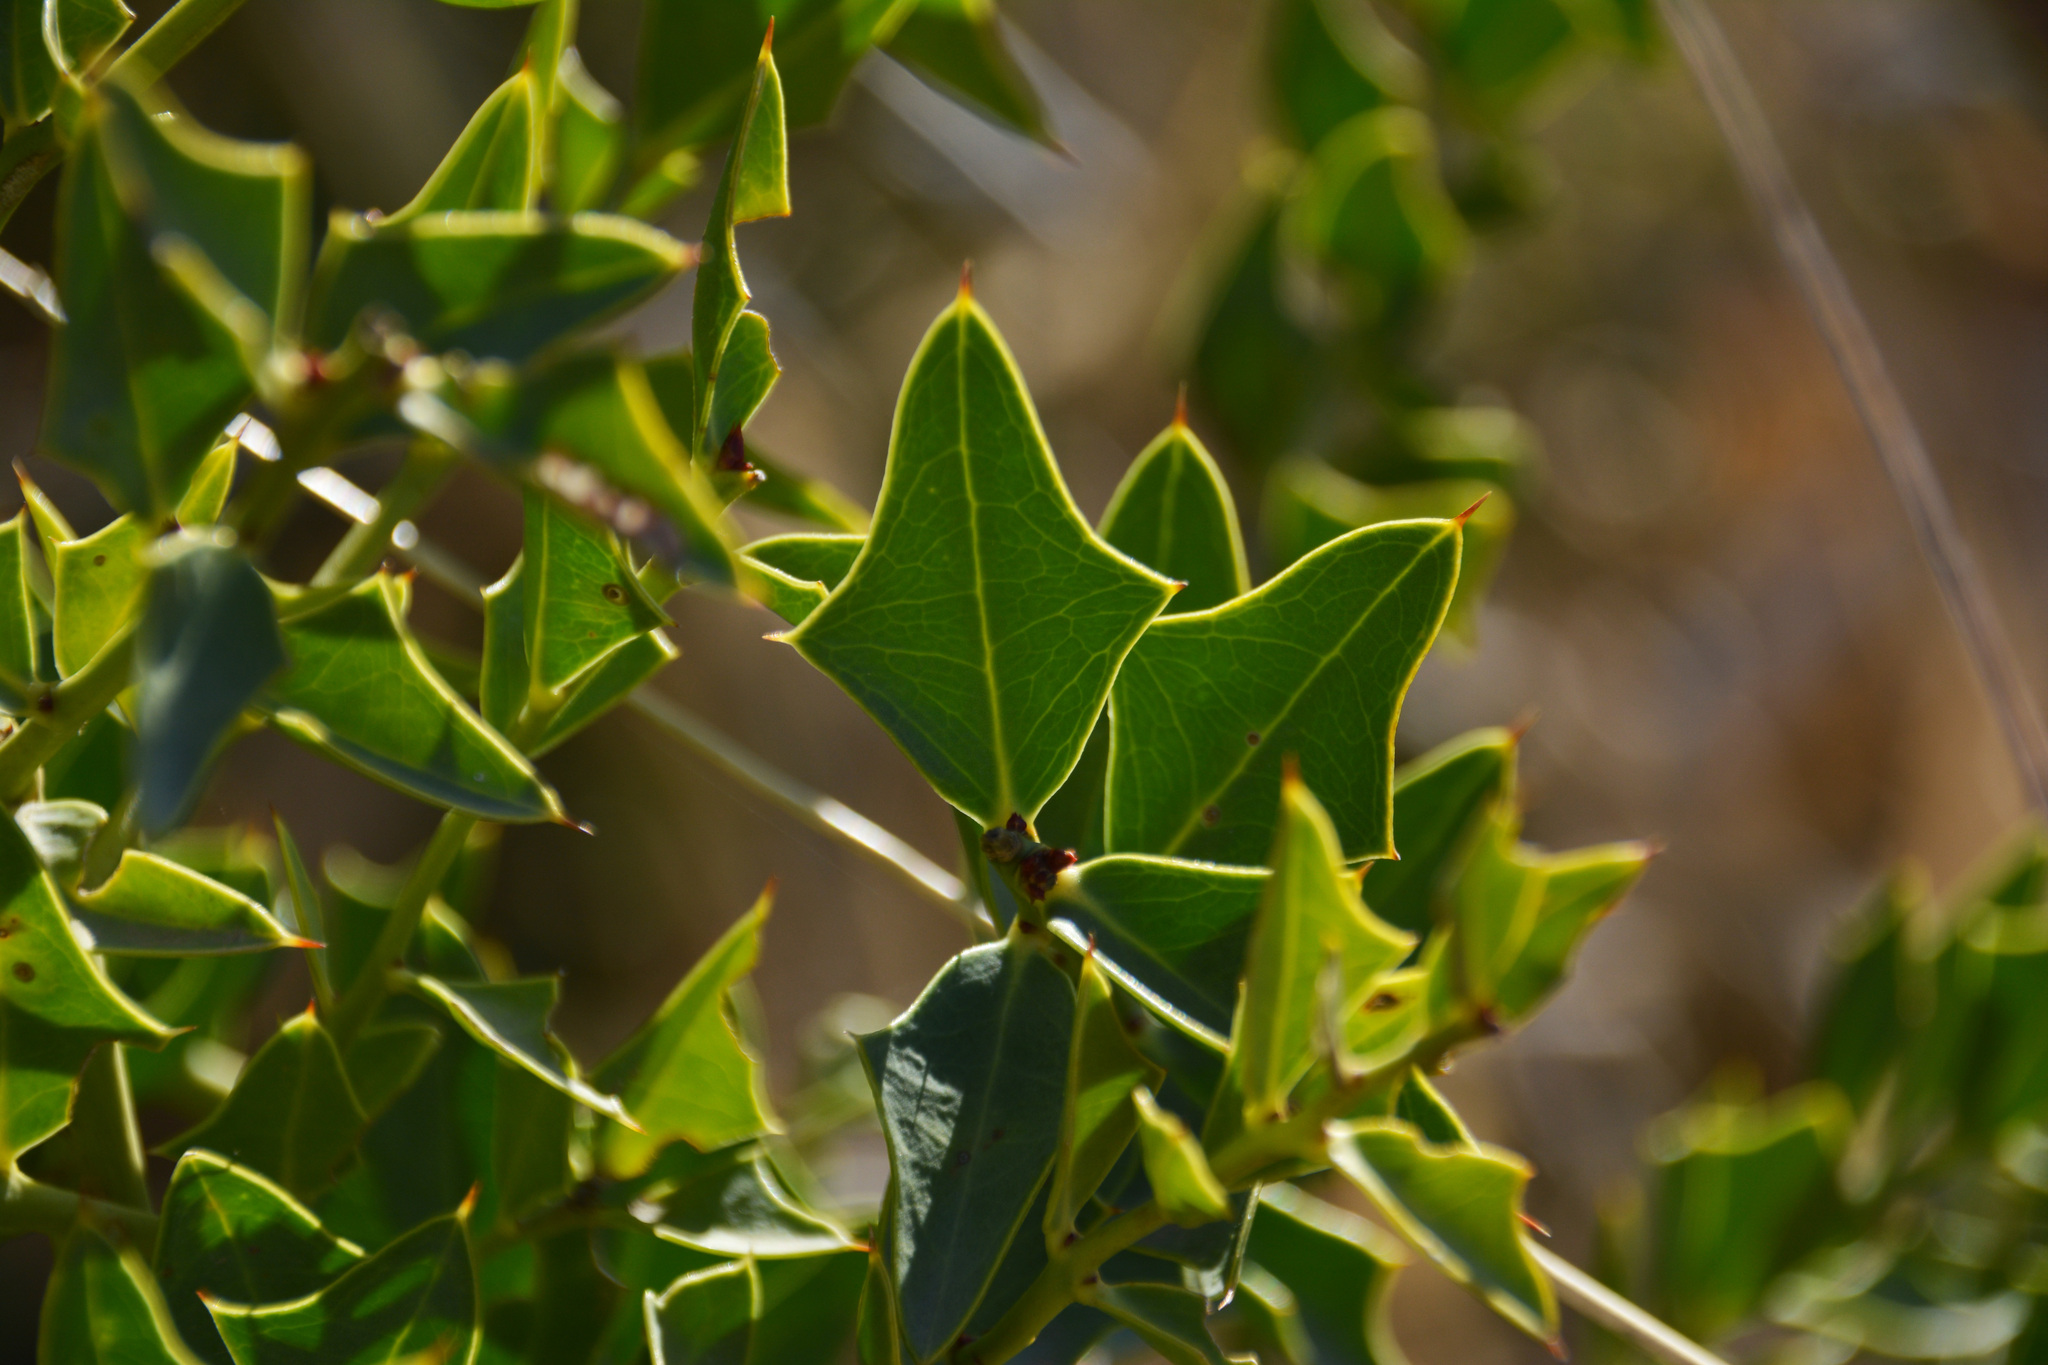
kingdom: Plantae
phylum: Tracheophyta
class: Magnoliopsida
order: Santalales
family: Cervantesiaceae
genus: Jodina
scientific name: Jodina rhombifolia
